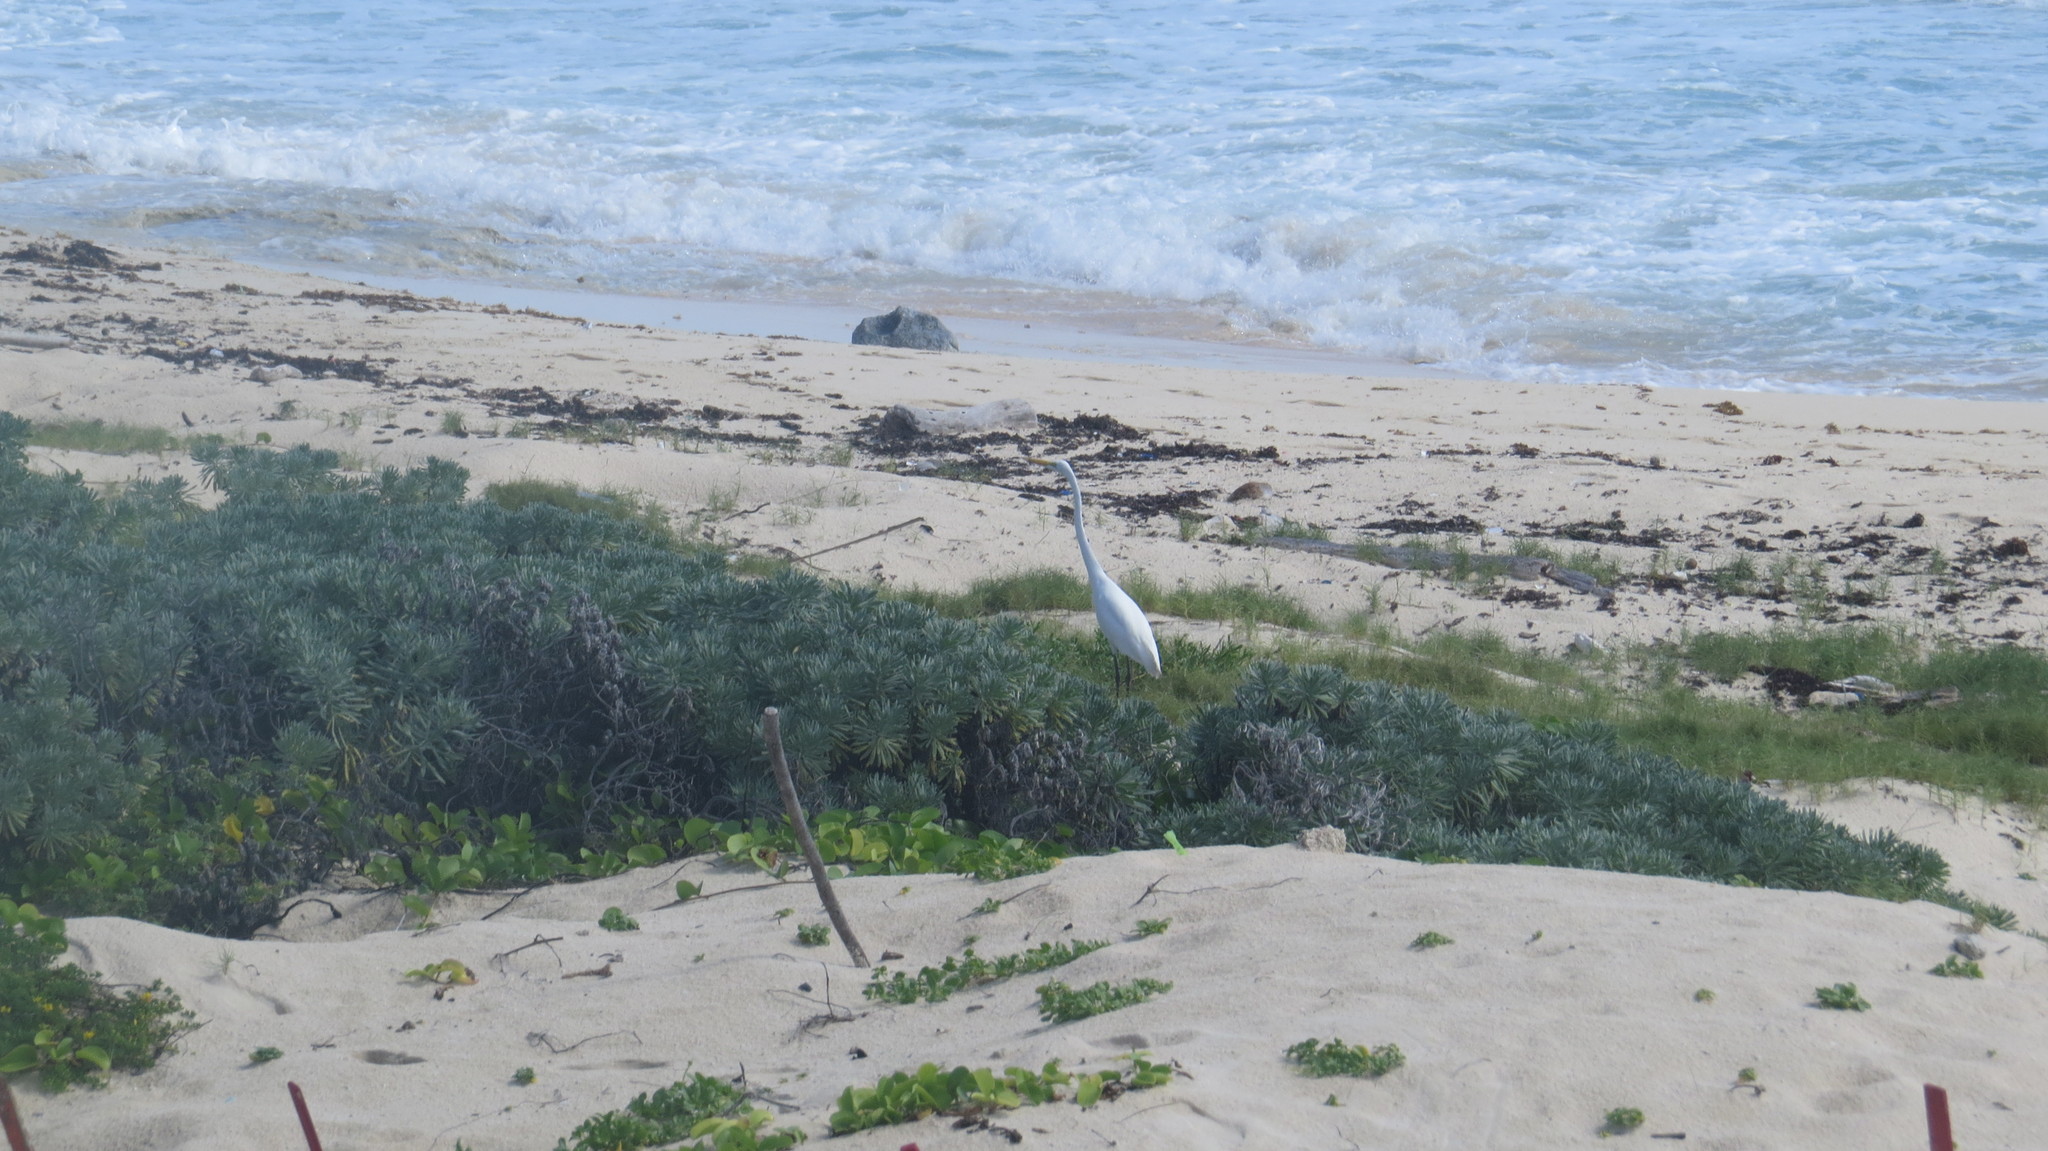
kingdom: Animalia
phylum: Chordata
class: Aves
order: Pelecaniformes
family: Ardeidae
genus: Ardea
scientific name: Ardea alba
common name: Great egret
